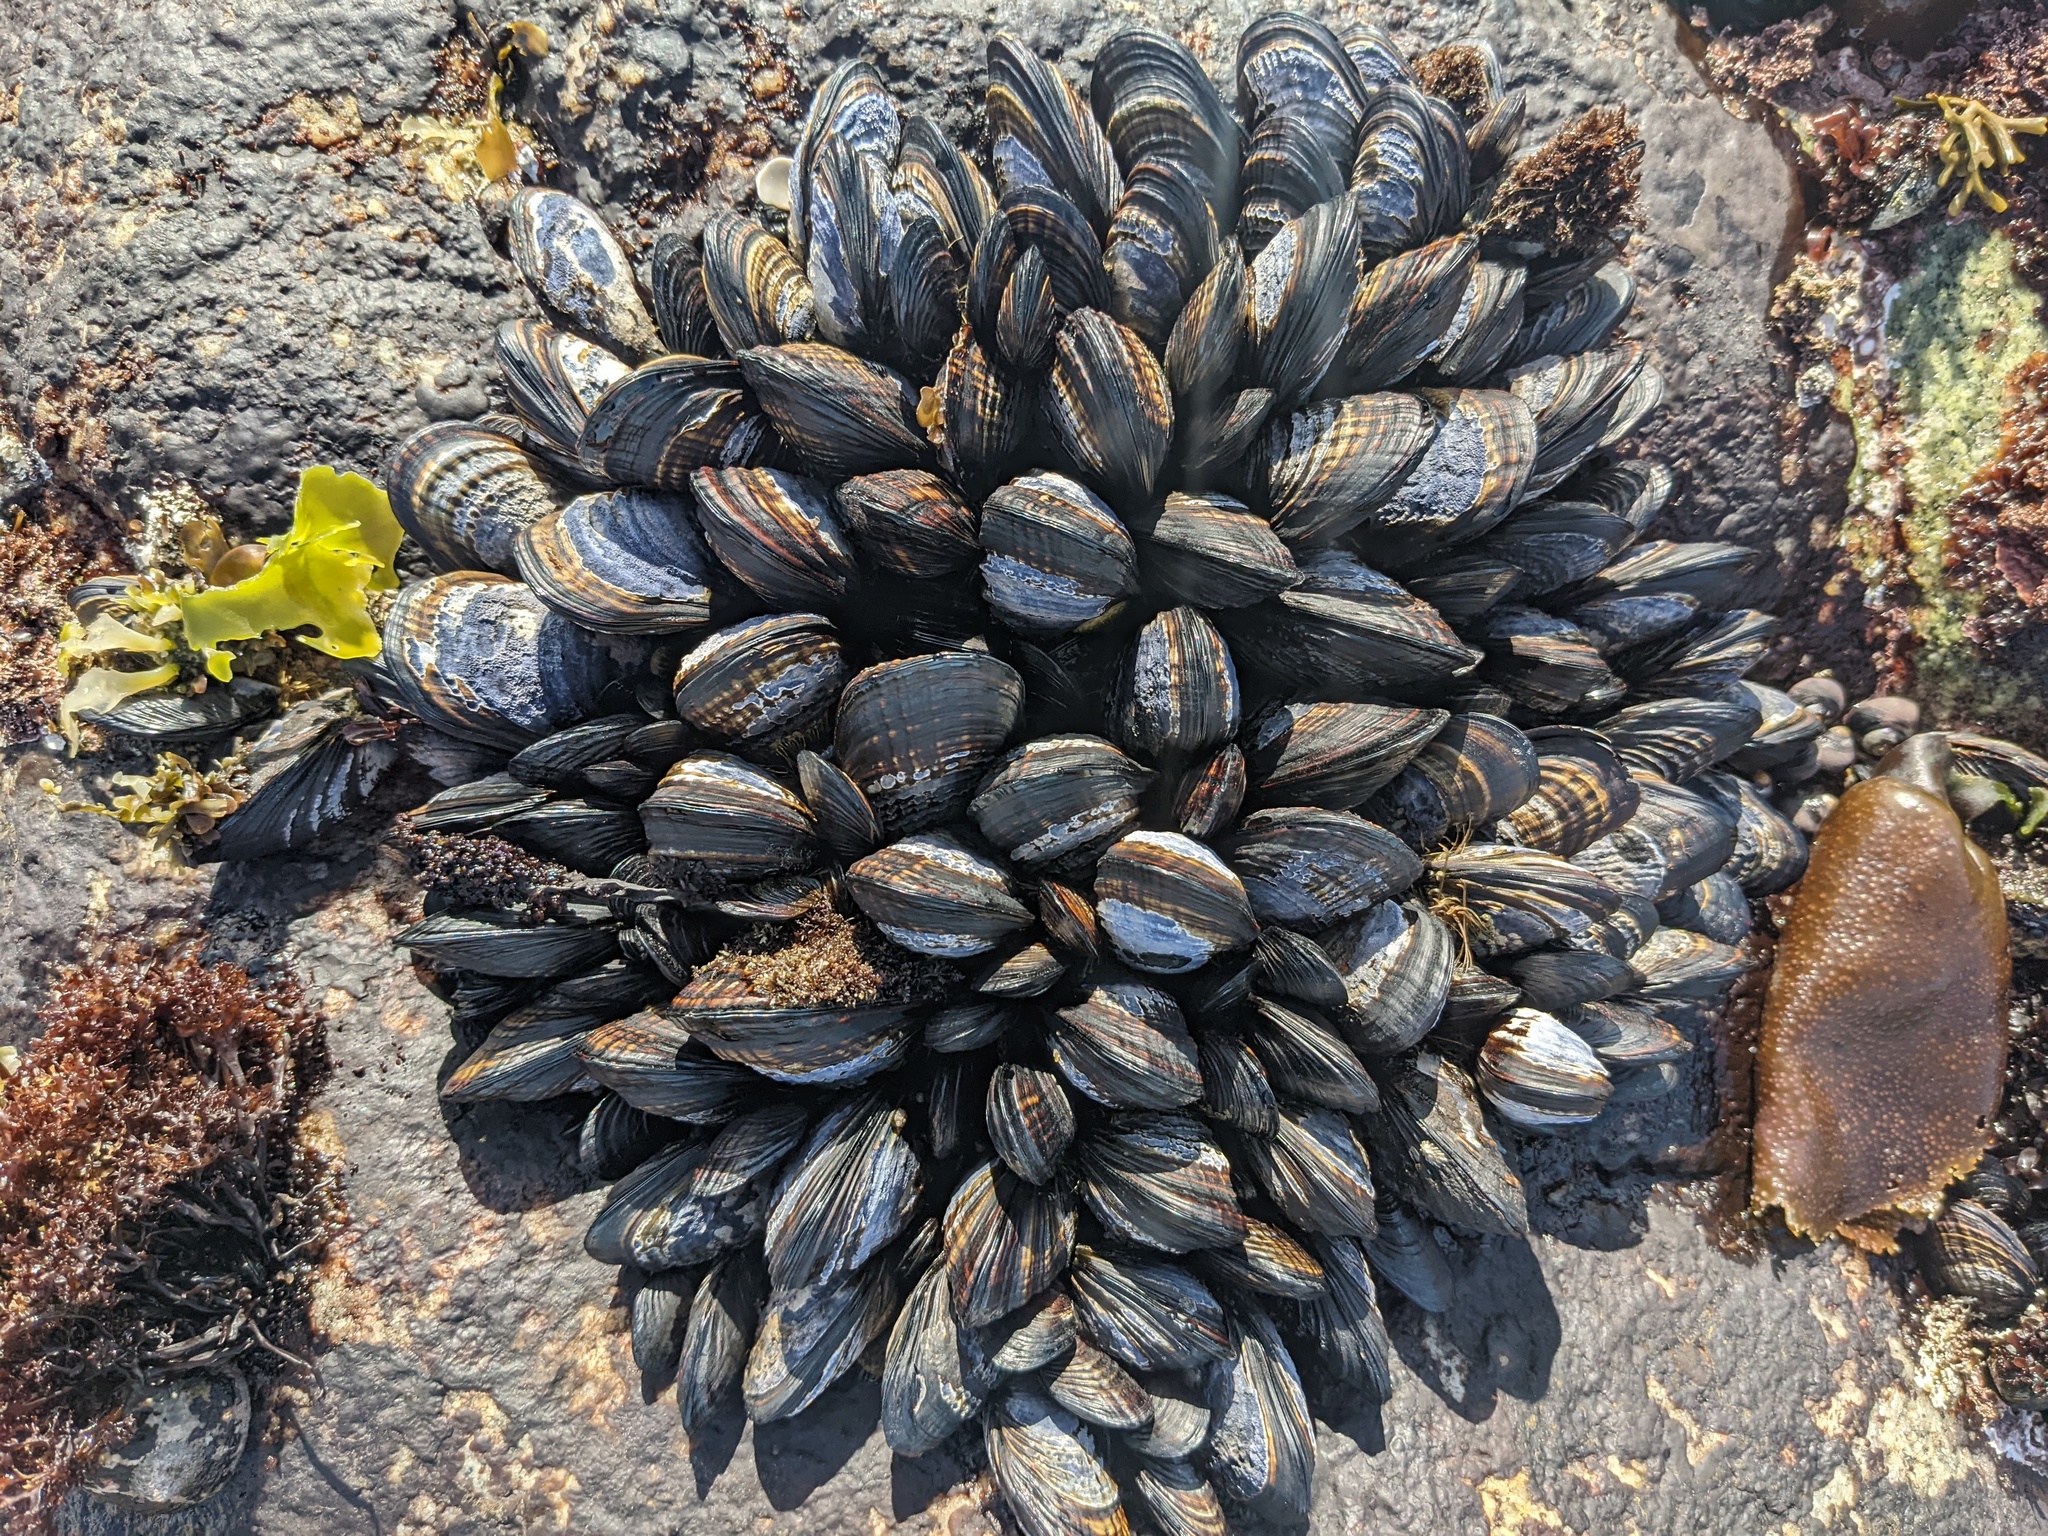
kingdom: Animalia
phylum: Mollusca
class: Bivalvia
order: Mytilida
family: Mytilidae
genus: Mytilus
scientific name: Mytilus californianus
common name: California mussel
